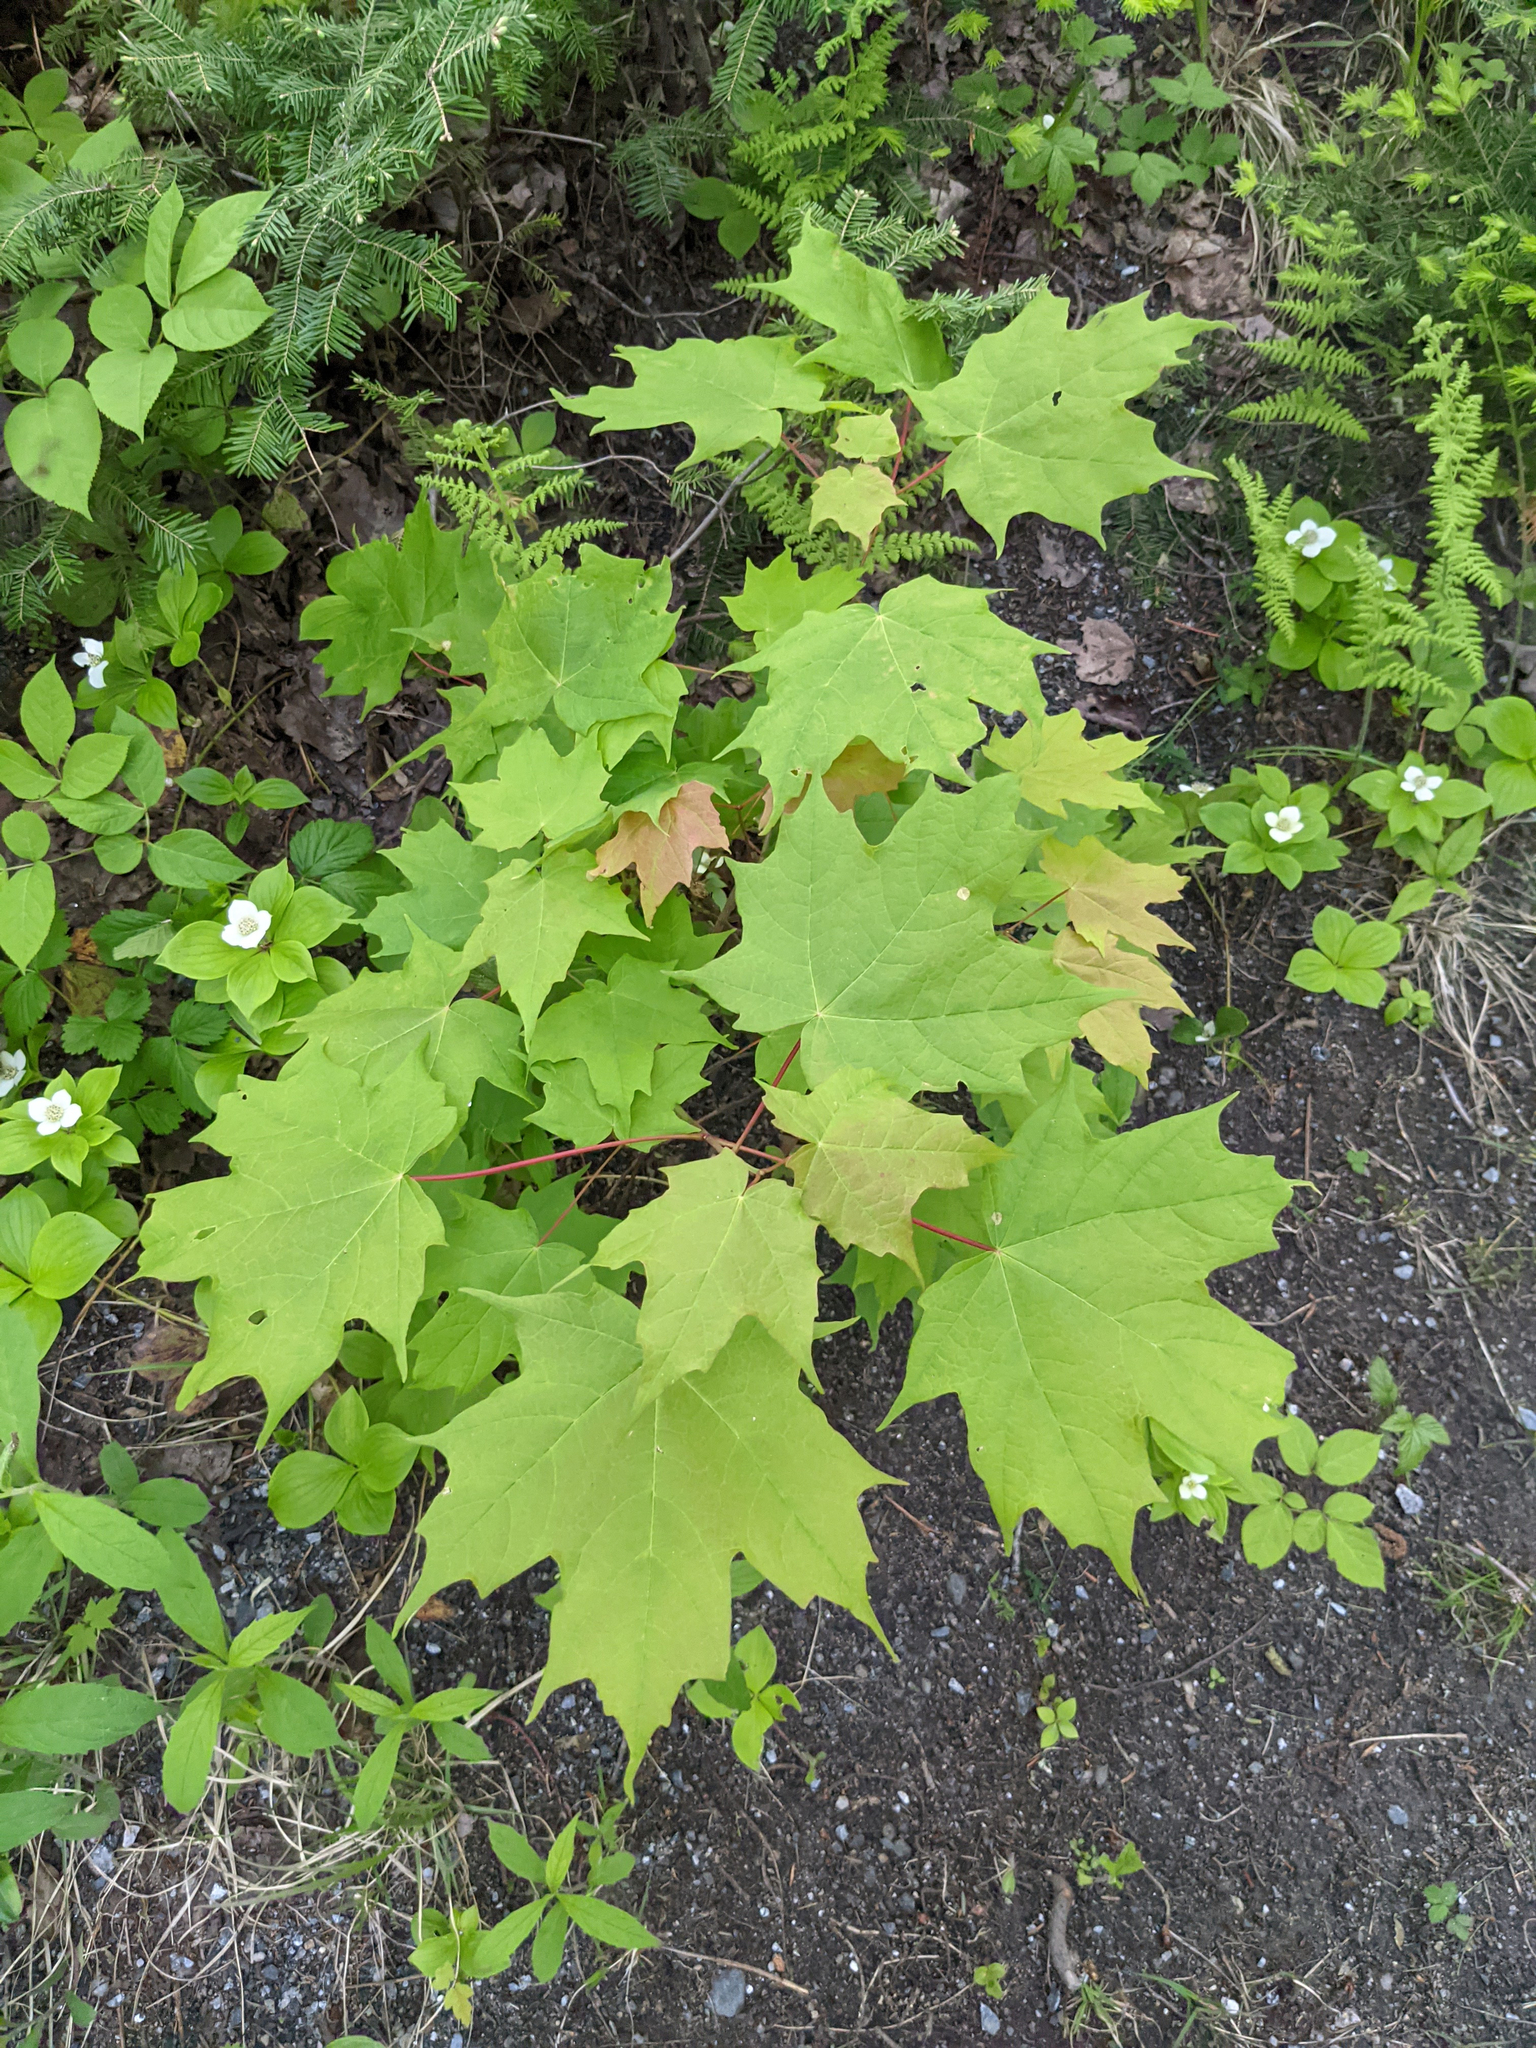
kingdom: Plantae
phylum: Tracheophyta
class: Magnoliopsida
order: Sapindales
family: Sapindaceae
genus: Acer
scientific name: Acer saccharum
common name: Sugar maple
